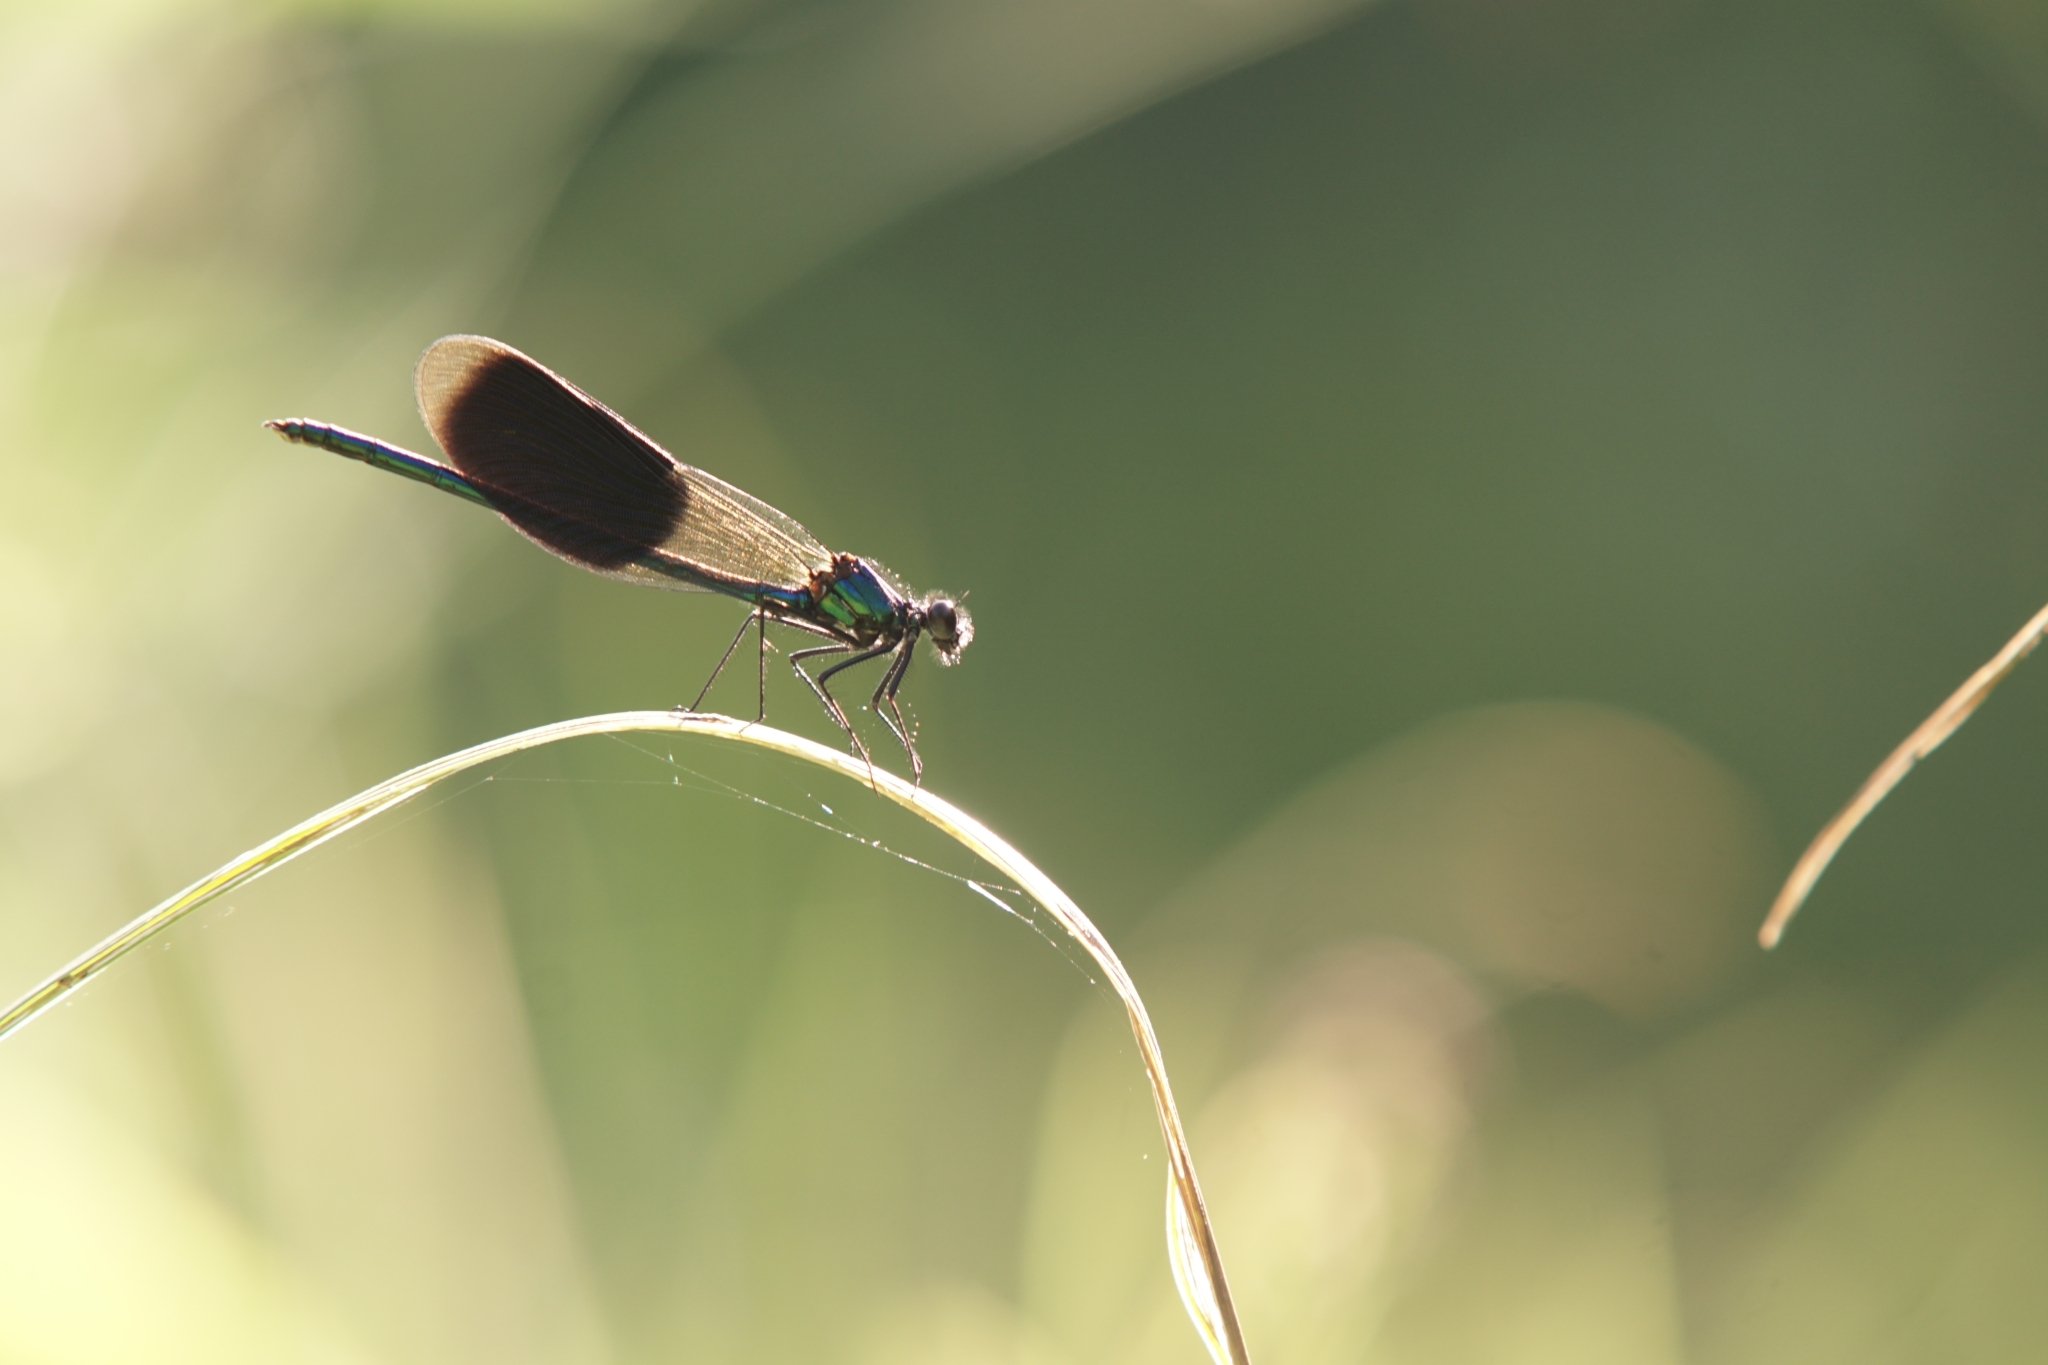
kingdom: Animalia
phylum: Arthropoda
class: Insecta
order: Odonata
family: Calopterygidae
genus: Calopteryx
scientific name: Calopteryx splendens
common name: Banded demoiselle
